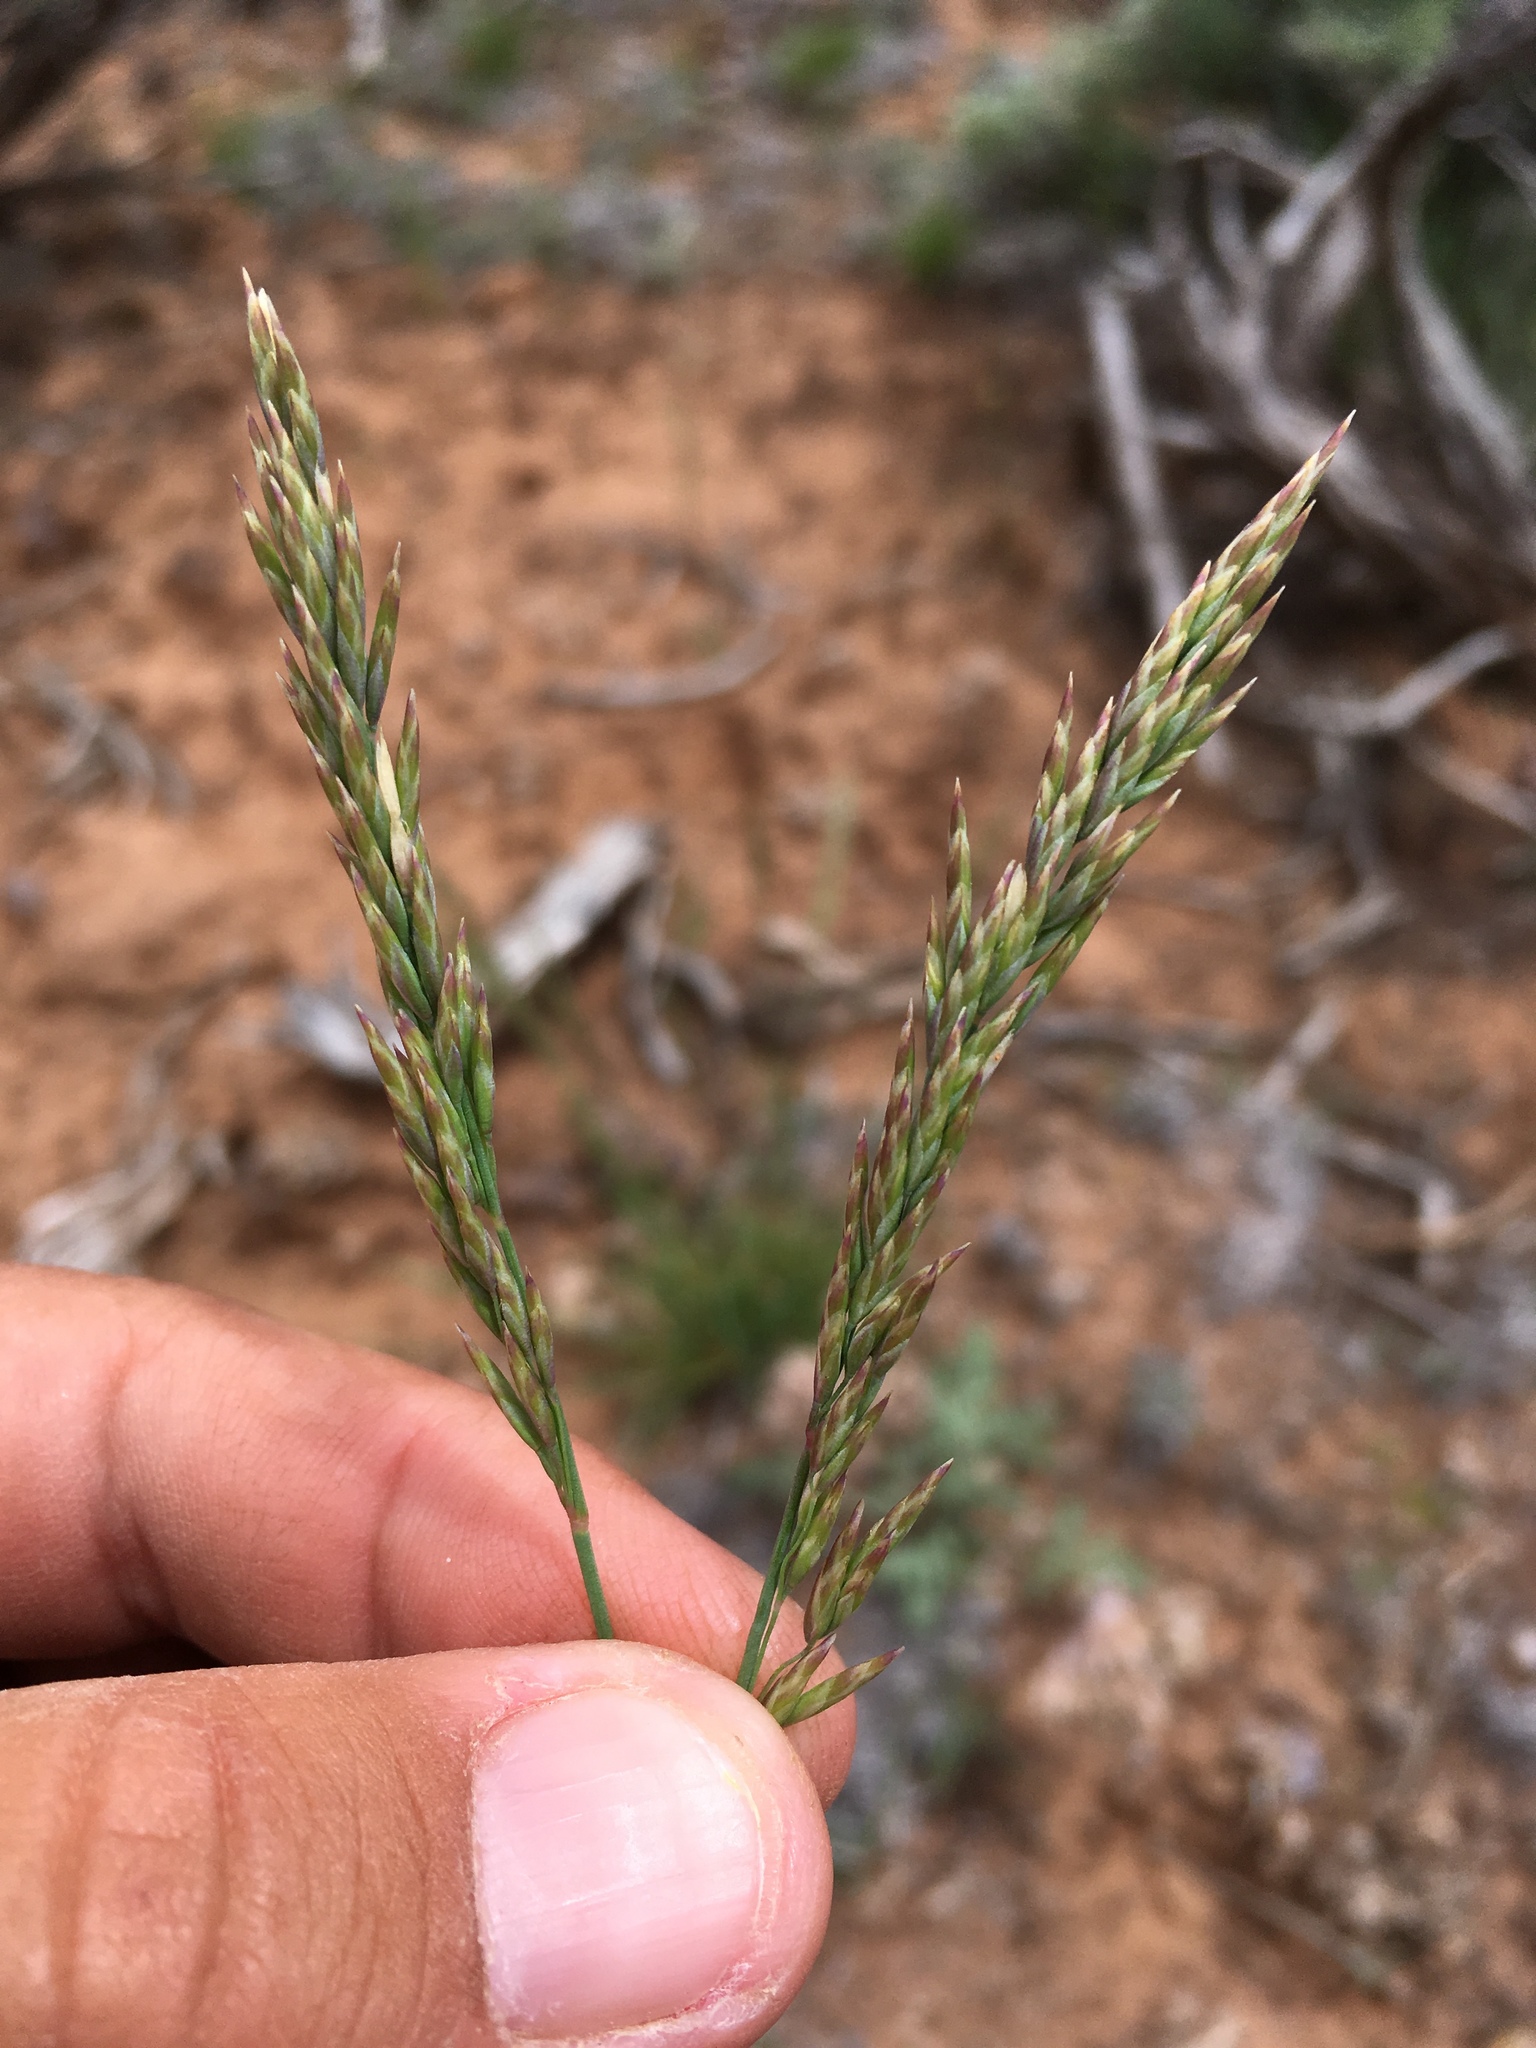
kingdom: Plantae
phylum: Tracheophyta
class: Liliopsida
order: Poales
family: Poaceae
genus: Poa
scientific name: Poa secunda
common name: Sandberg bluegrass
